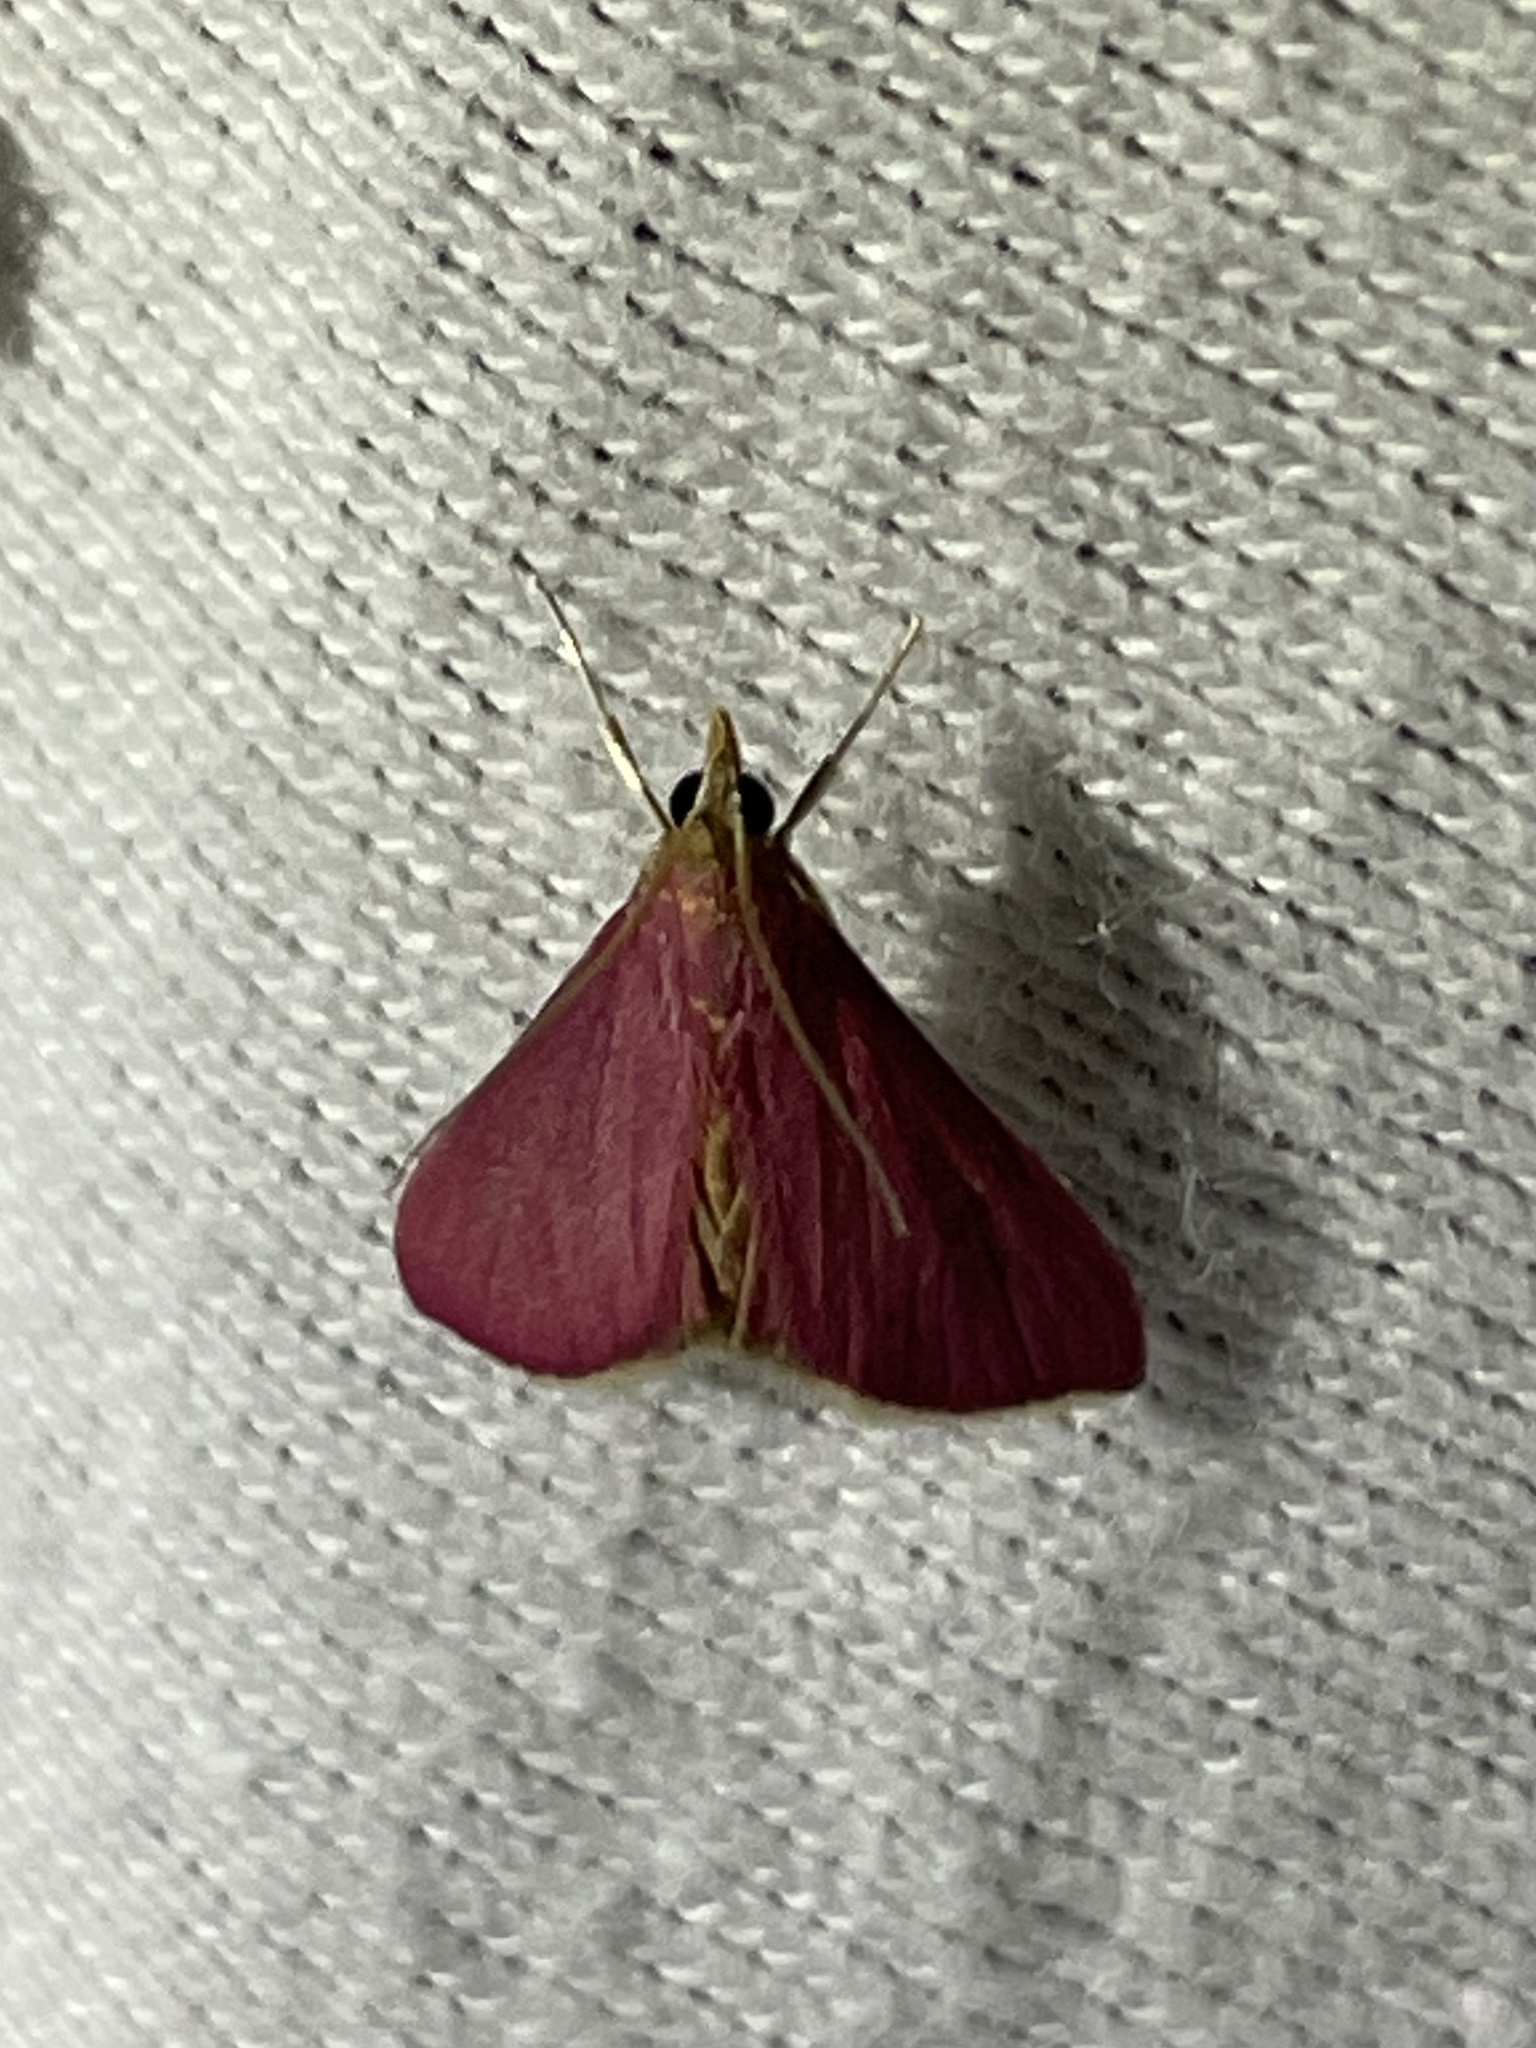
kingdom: Animalia
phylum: Arthropoda
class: Insecta
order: Lepidoptera
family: Crambidae
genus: Pyrausta
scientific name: Pyrausta inornatalis
